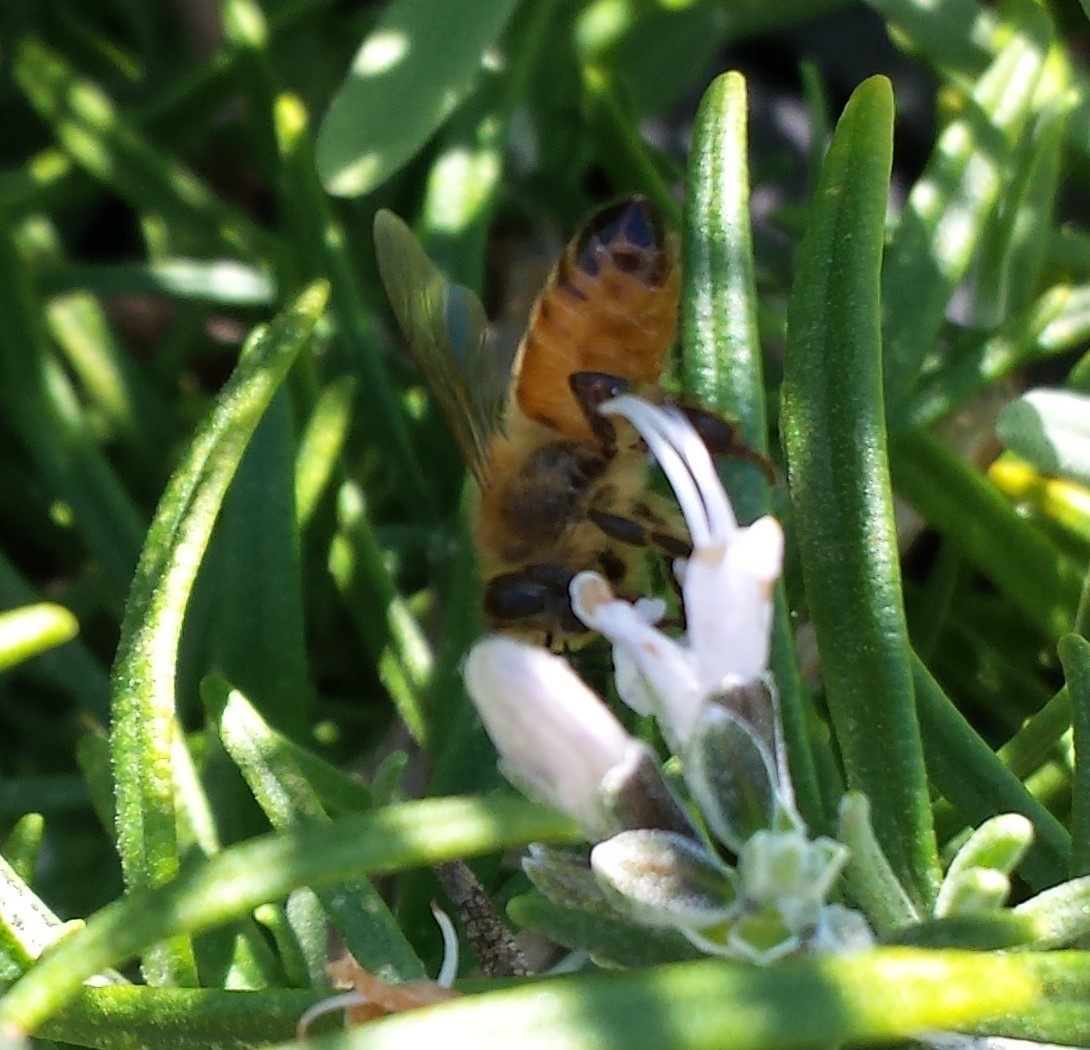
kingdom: Animalia
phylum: Arthropoda
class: Insecta
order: Hymenoptera
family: Apidae
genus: Apis
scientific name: Apis mellifera
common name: Honey bee
